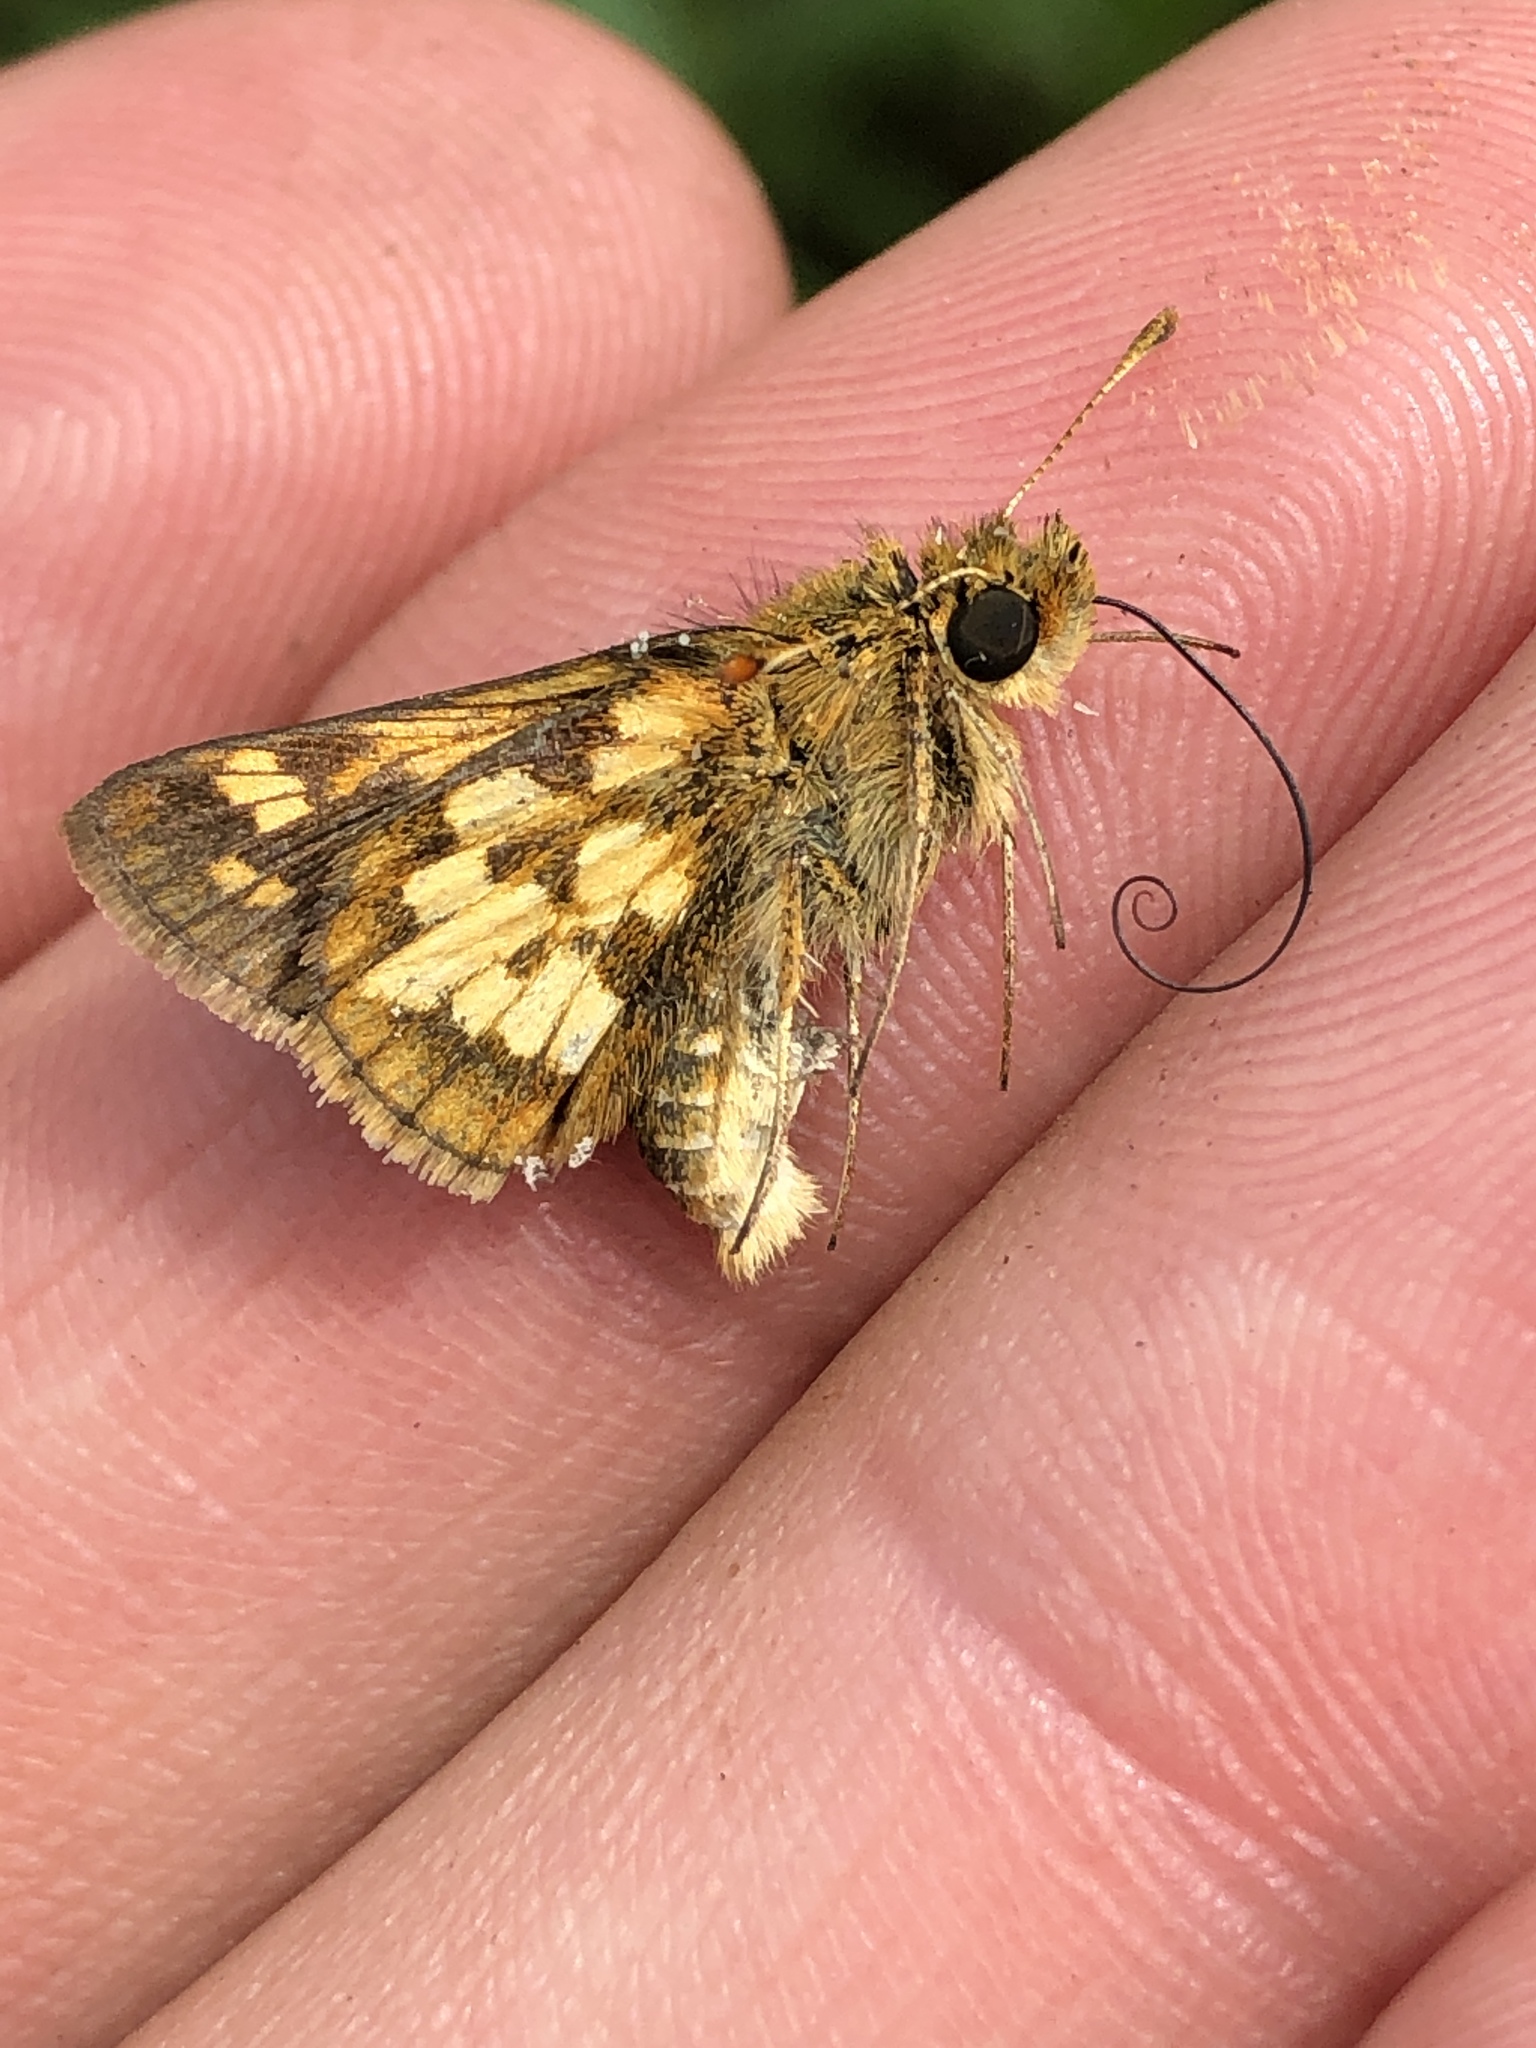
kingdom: Animalia
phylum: Arthropoda
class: Insecta
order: Lepidoptera
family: Hesperiidae
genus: Polites
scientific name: Polites coras
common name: Peck's skipper
